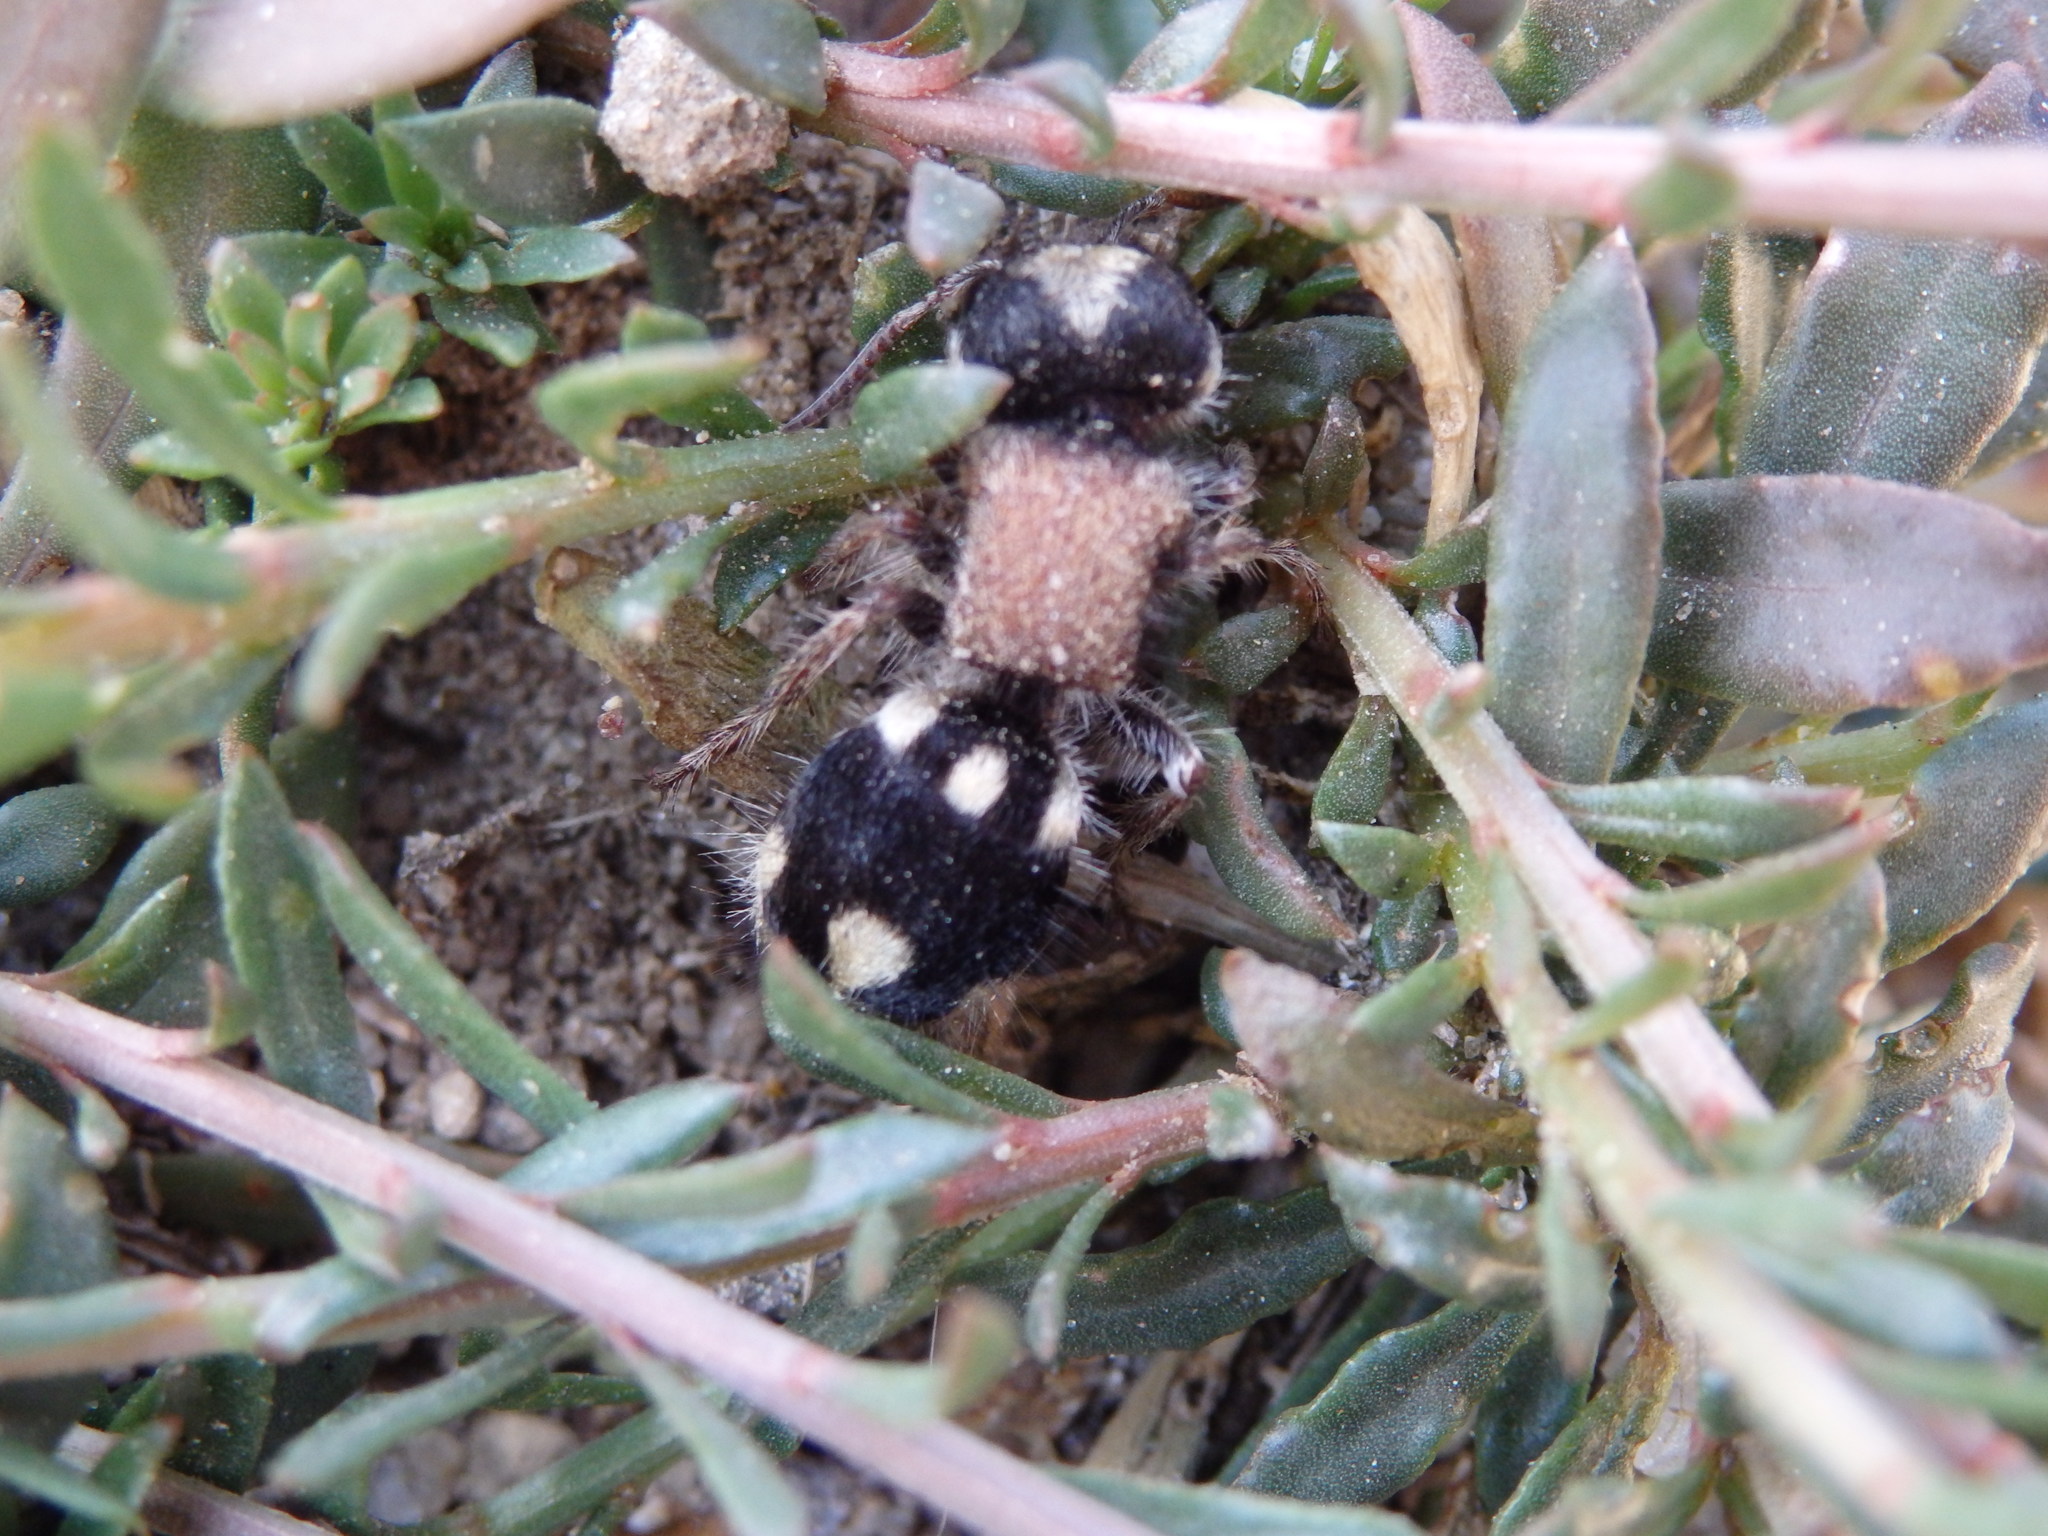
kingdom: Animalia
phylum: Arthropoda
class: Insecta
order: Hymenoptera
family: Mutillidae
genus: Ronisia
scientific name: Ronisia barbarula
